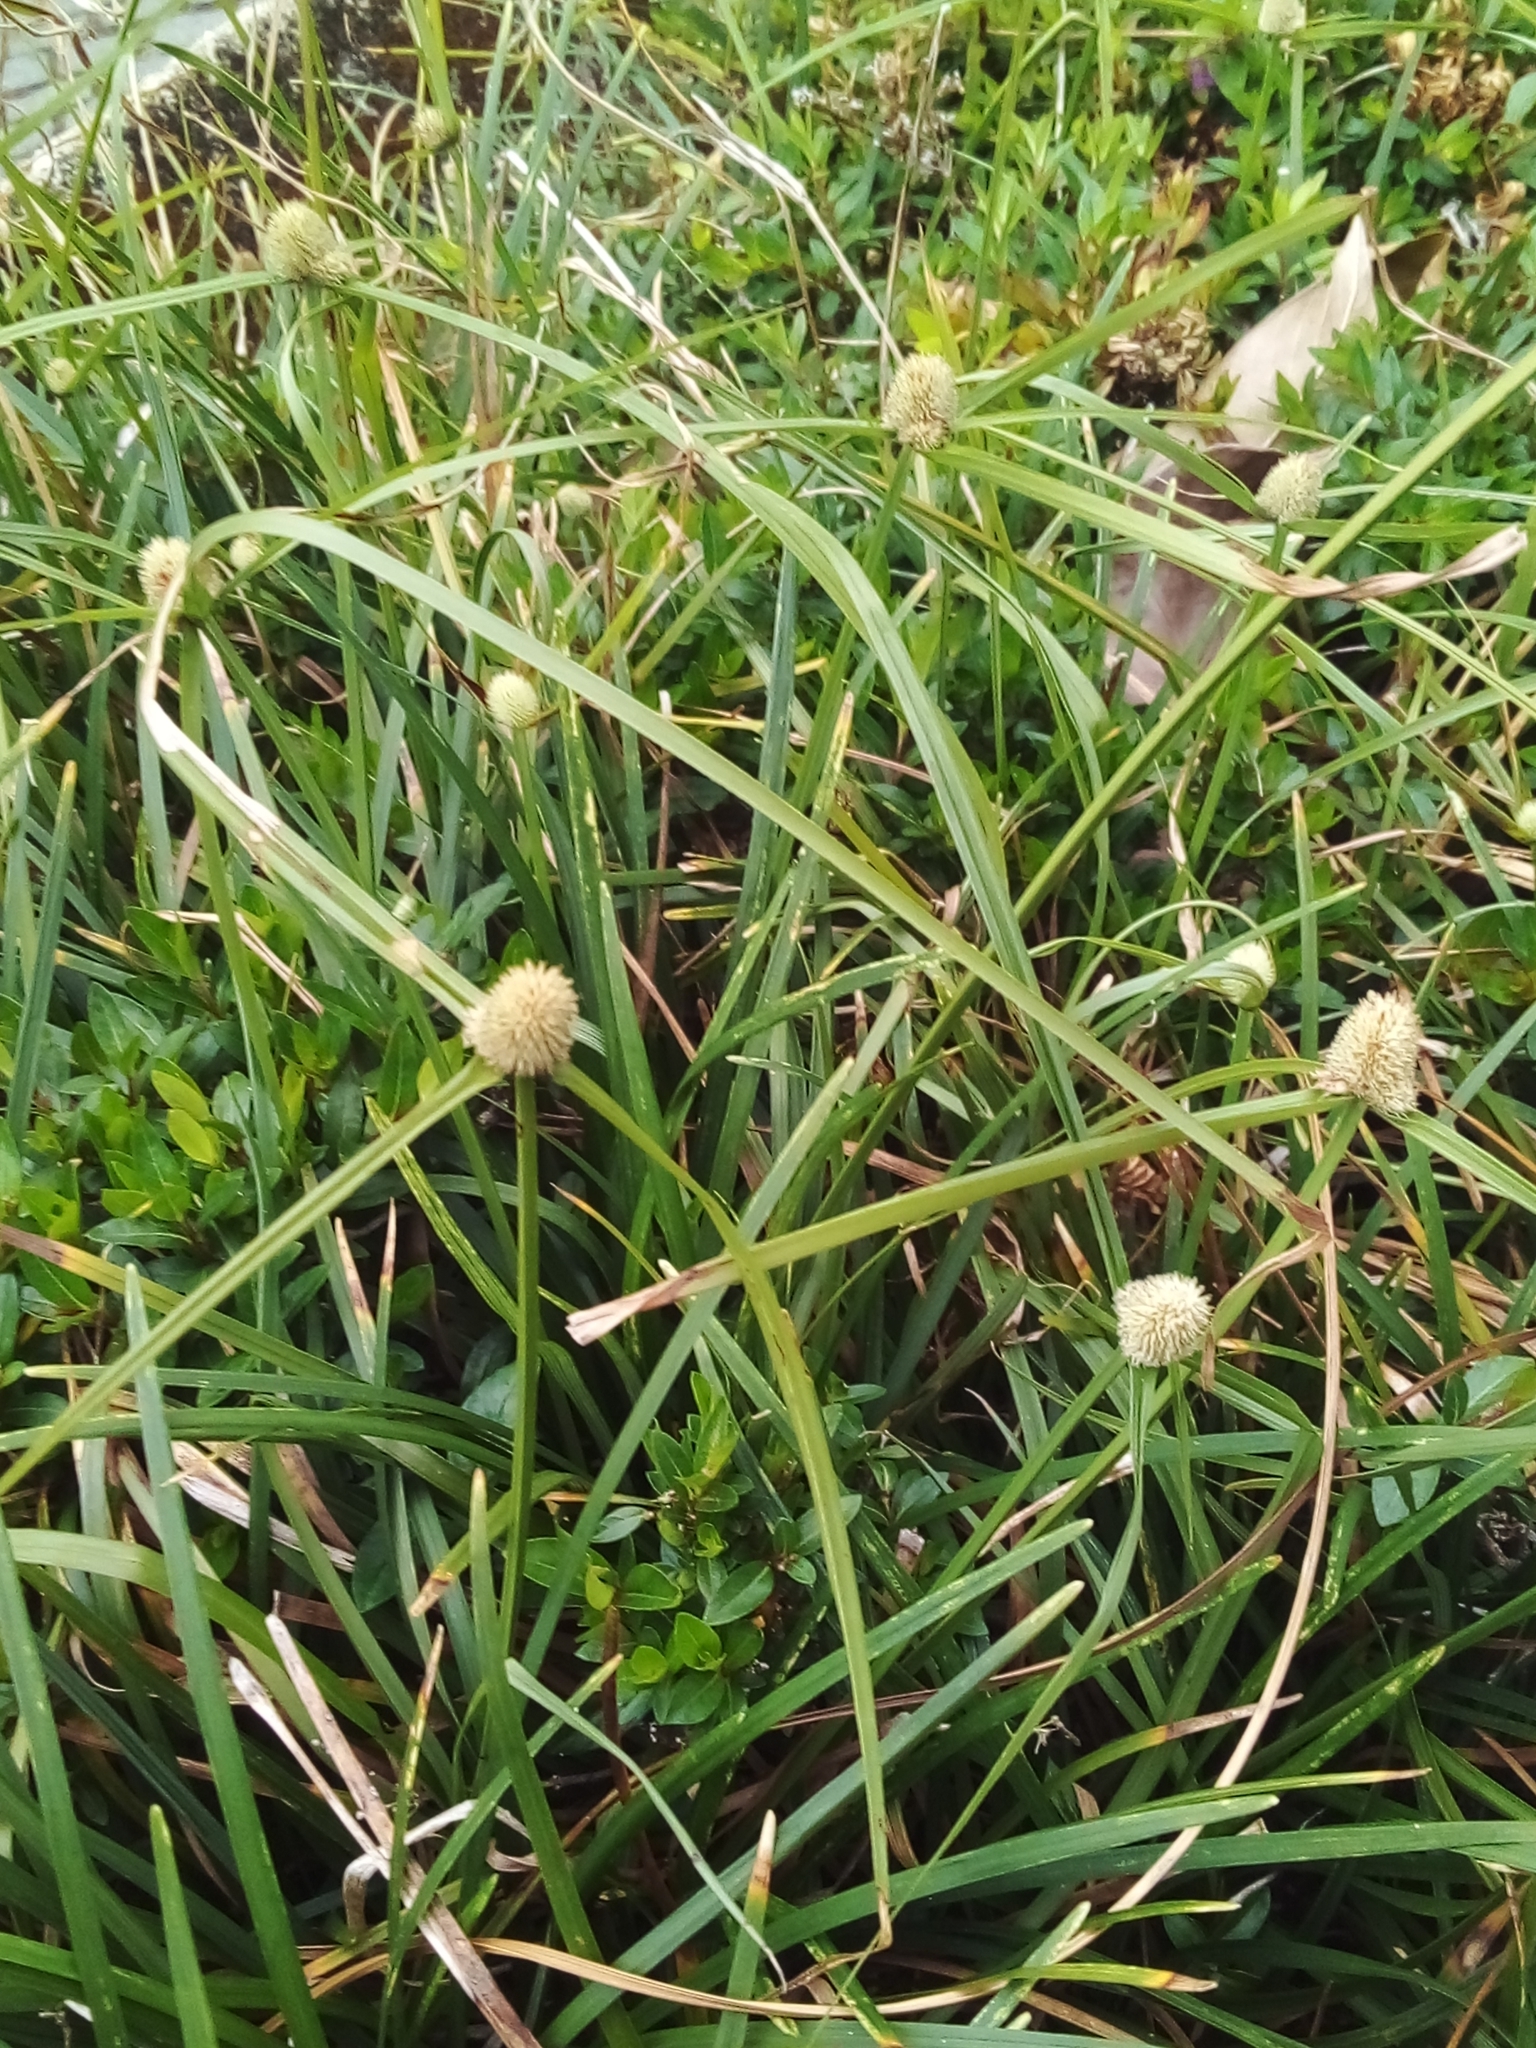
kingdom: Plantae
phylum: Tracheophyta
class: Liliopsida
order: Poales
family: Cyperaceae
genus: Cyperus
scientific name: Cyperus mindorensis
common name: Flatsedge
